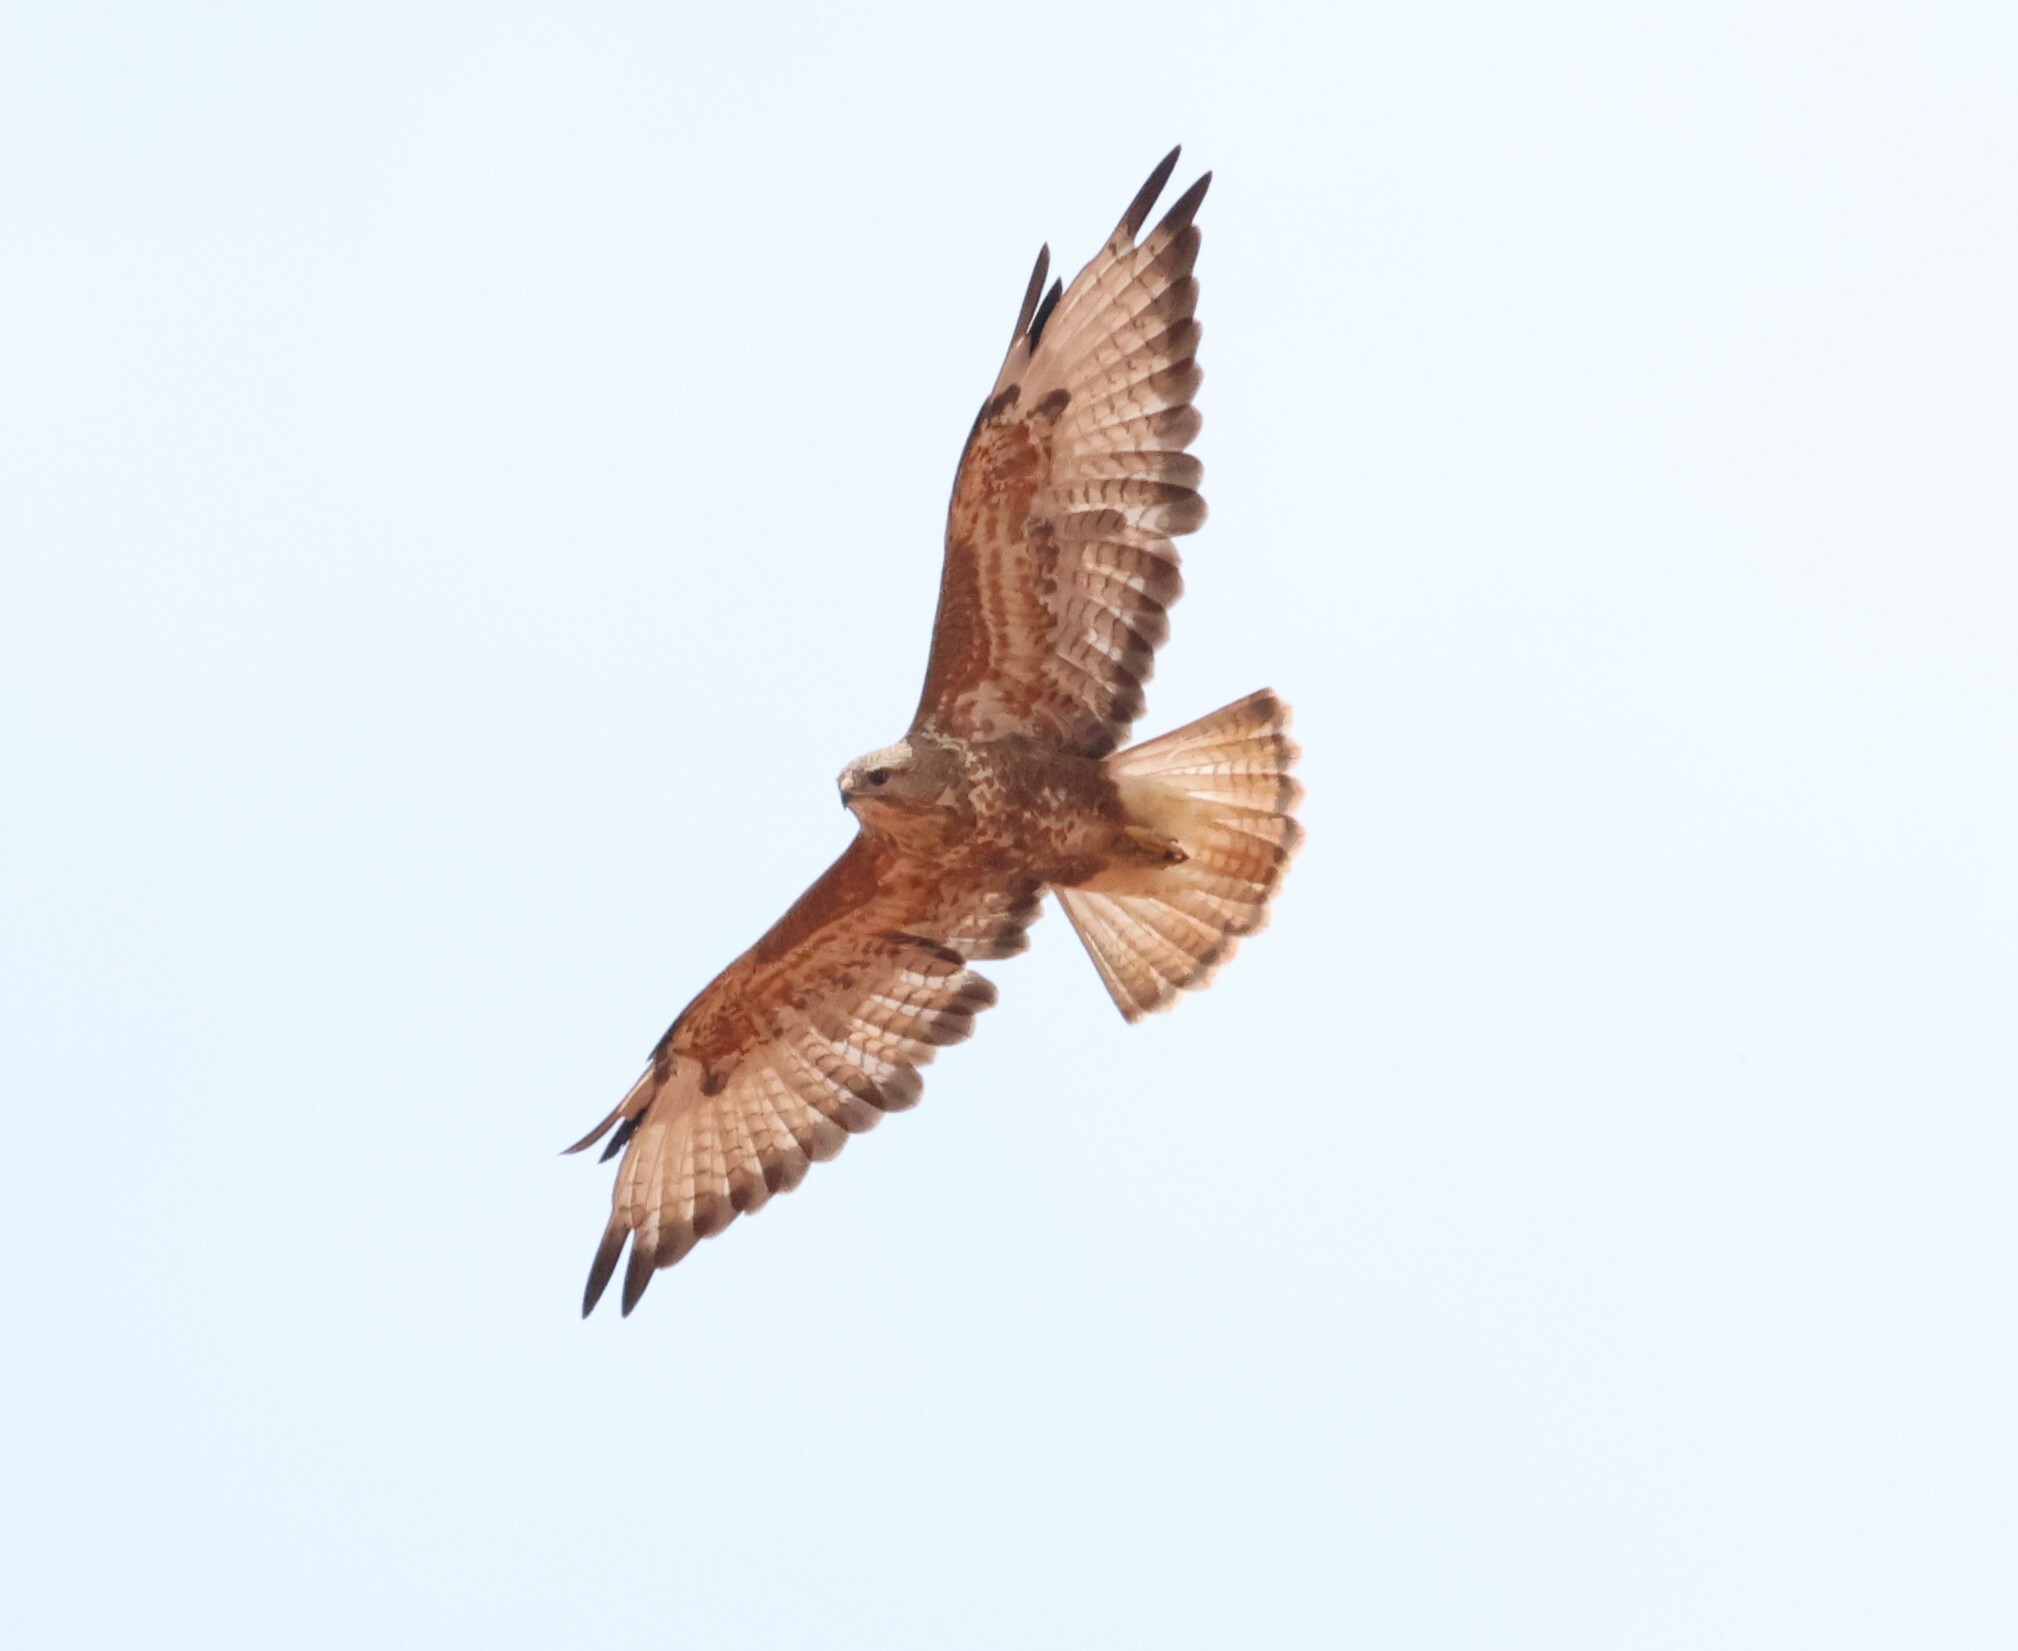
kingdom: Animalia
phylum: Chordata
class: Aves
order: Accipitriformes
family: Accipitridae
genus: Buteo
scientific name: Buteo buteo
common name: Common buzzard
